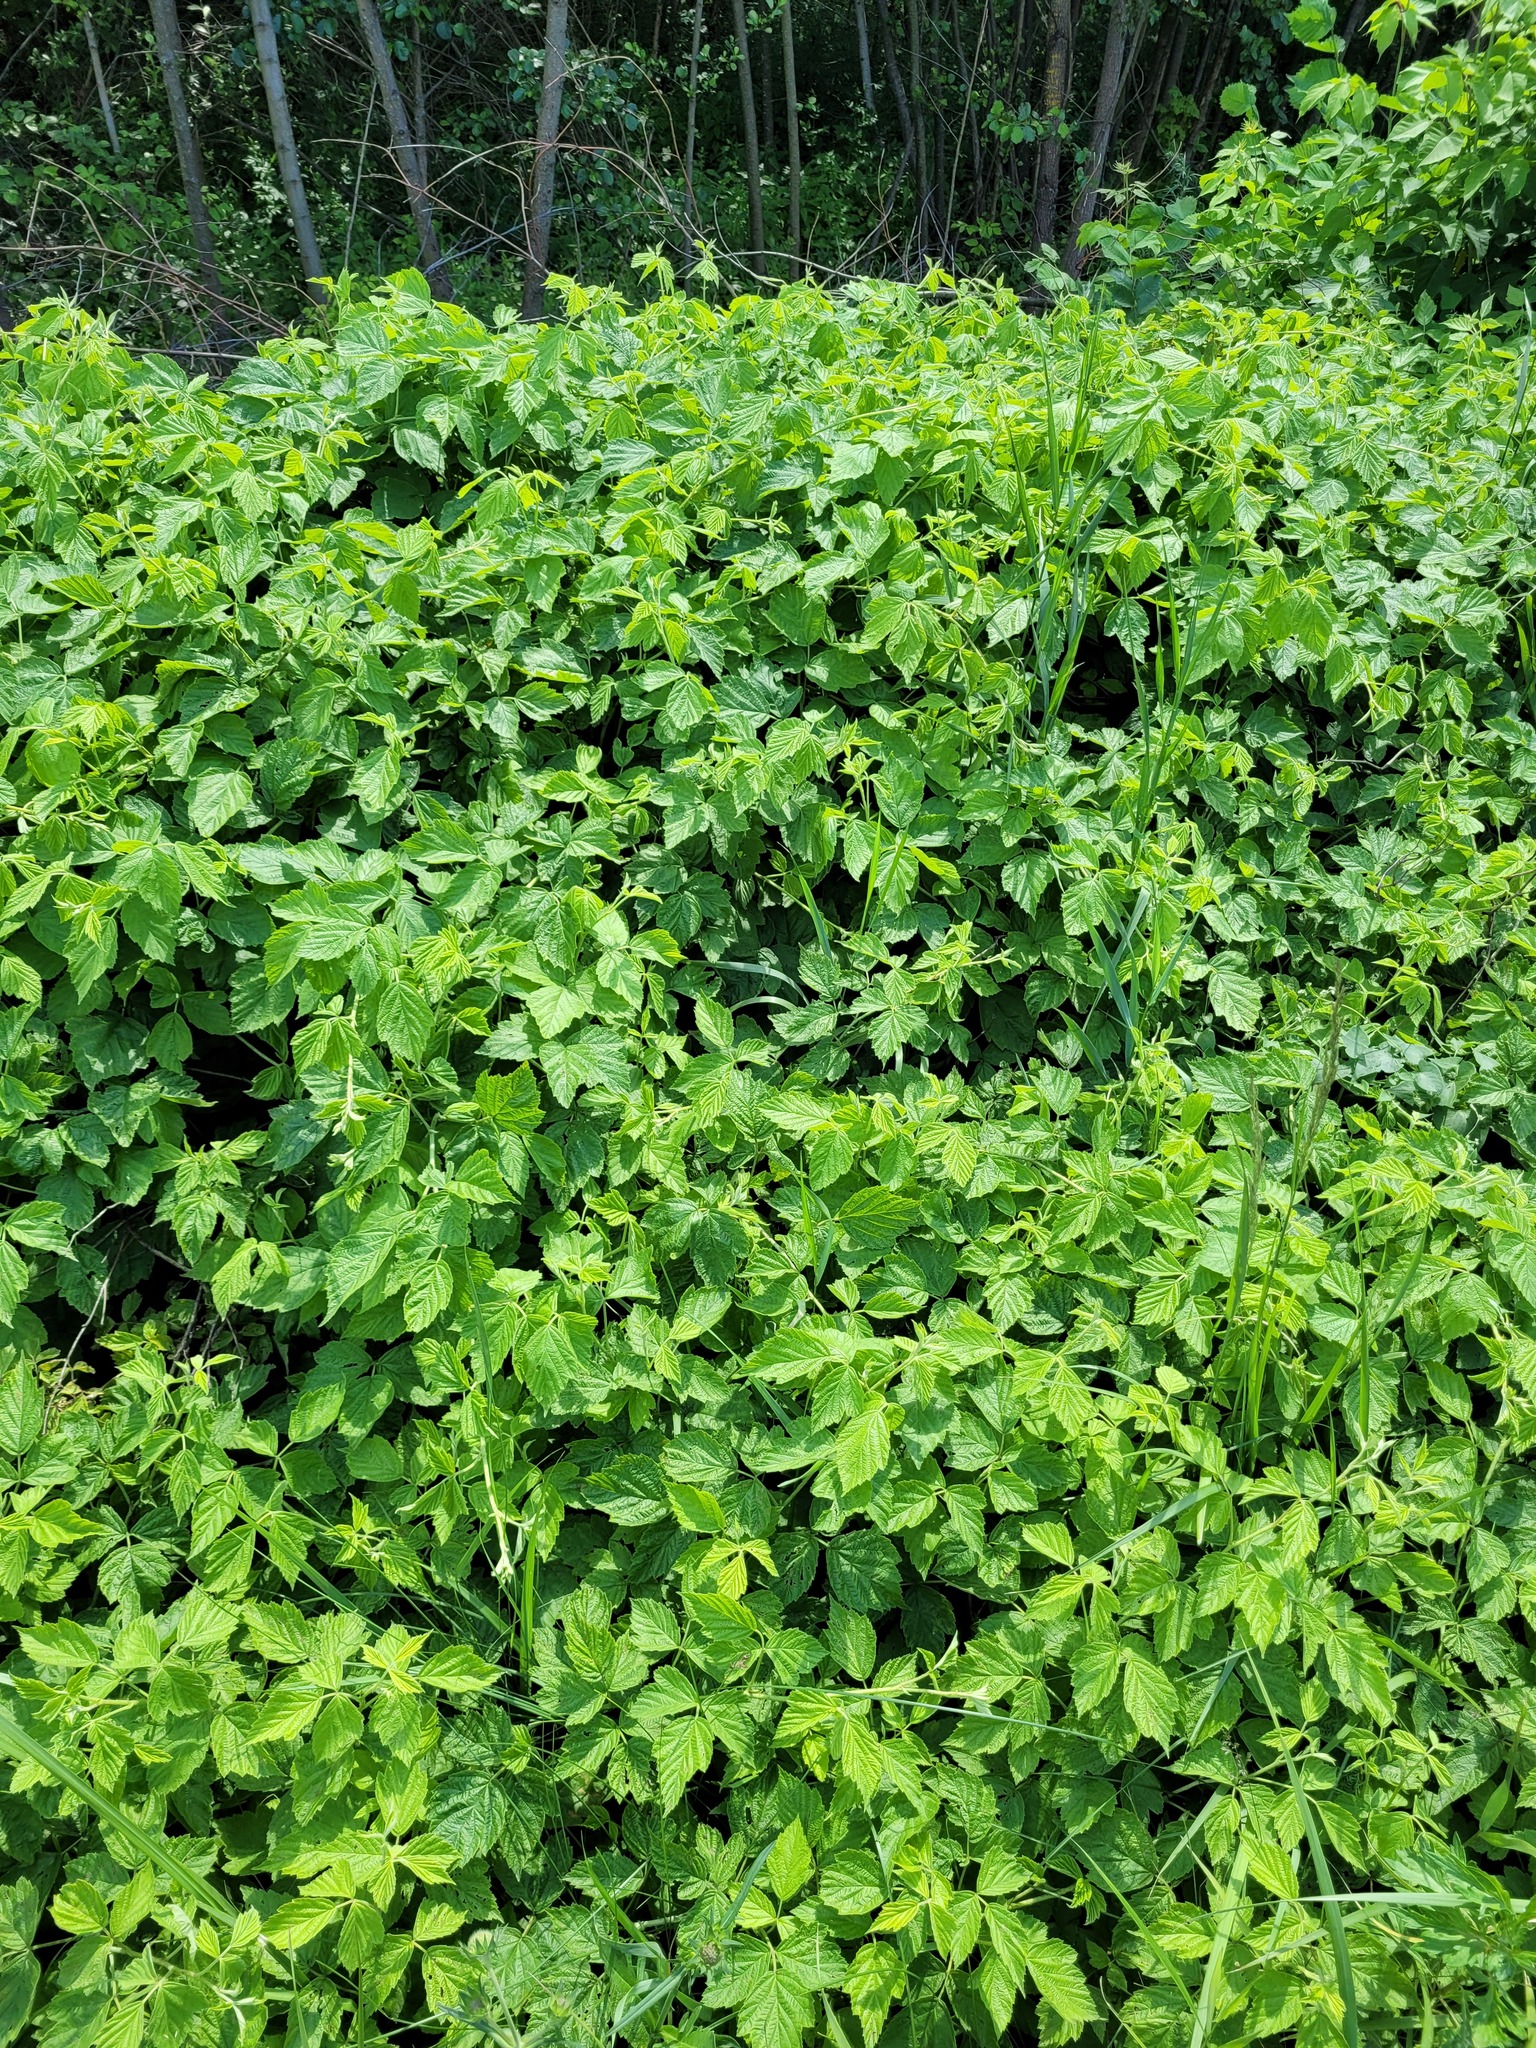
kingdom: Plantae
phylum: Tracheophyta
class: Magnoliopsida
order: Rosales
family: Rosaceae
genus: Rubus
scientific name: Rubus caesius
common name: Dewberry
